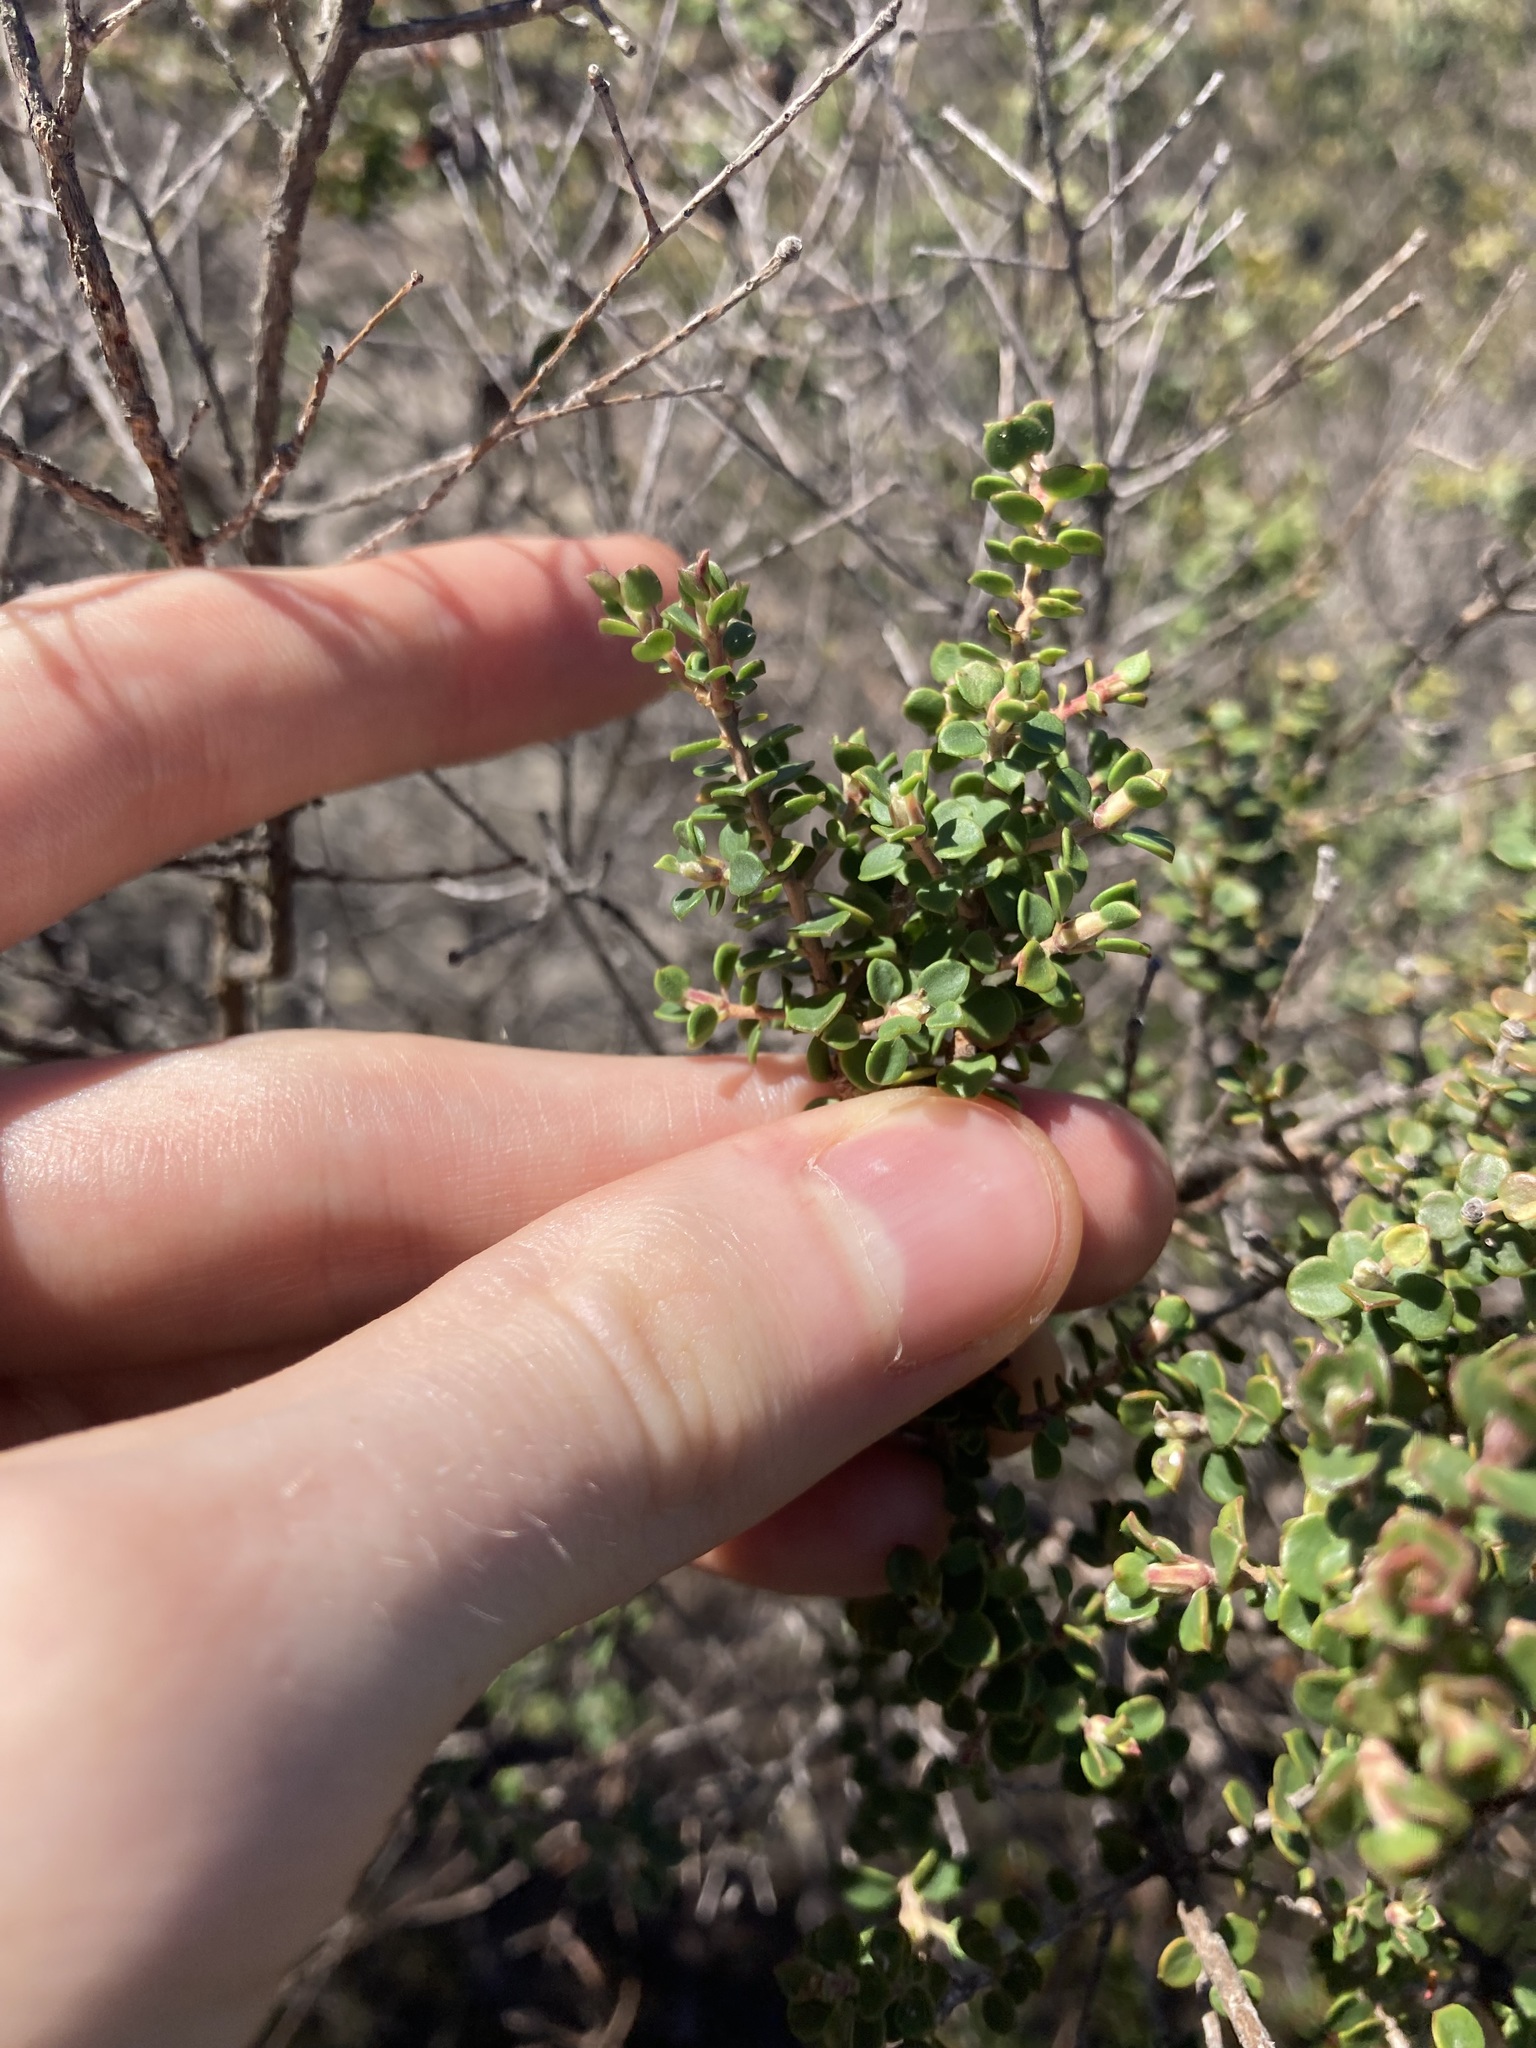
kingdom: Plantae
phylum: Tracheophyta
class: Magnoliopsida
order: Myrtales
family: Myrtaceae
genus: Leptospermum
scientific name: Leptospermum rotundifolium
